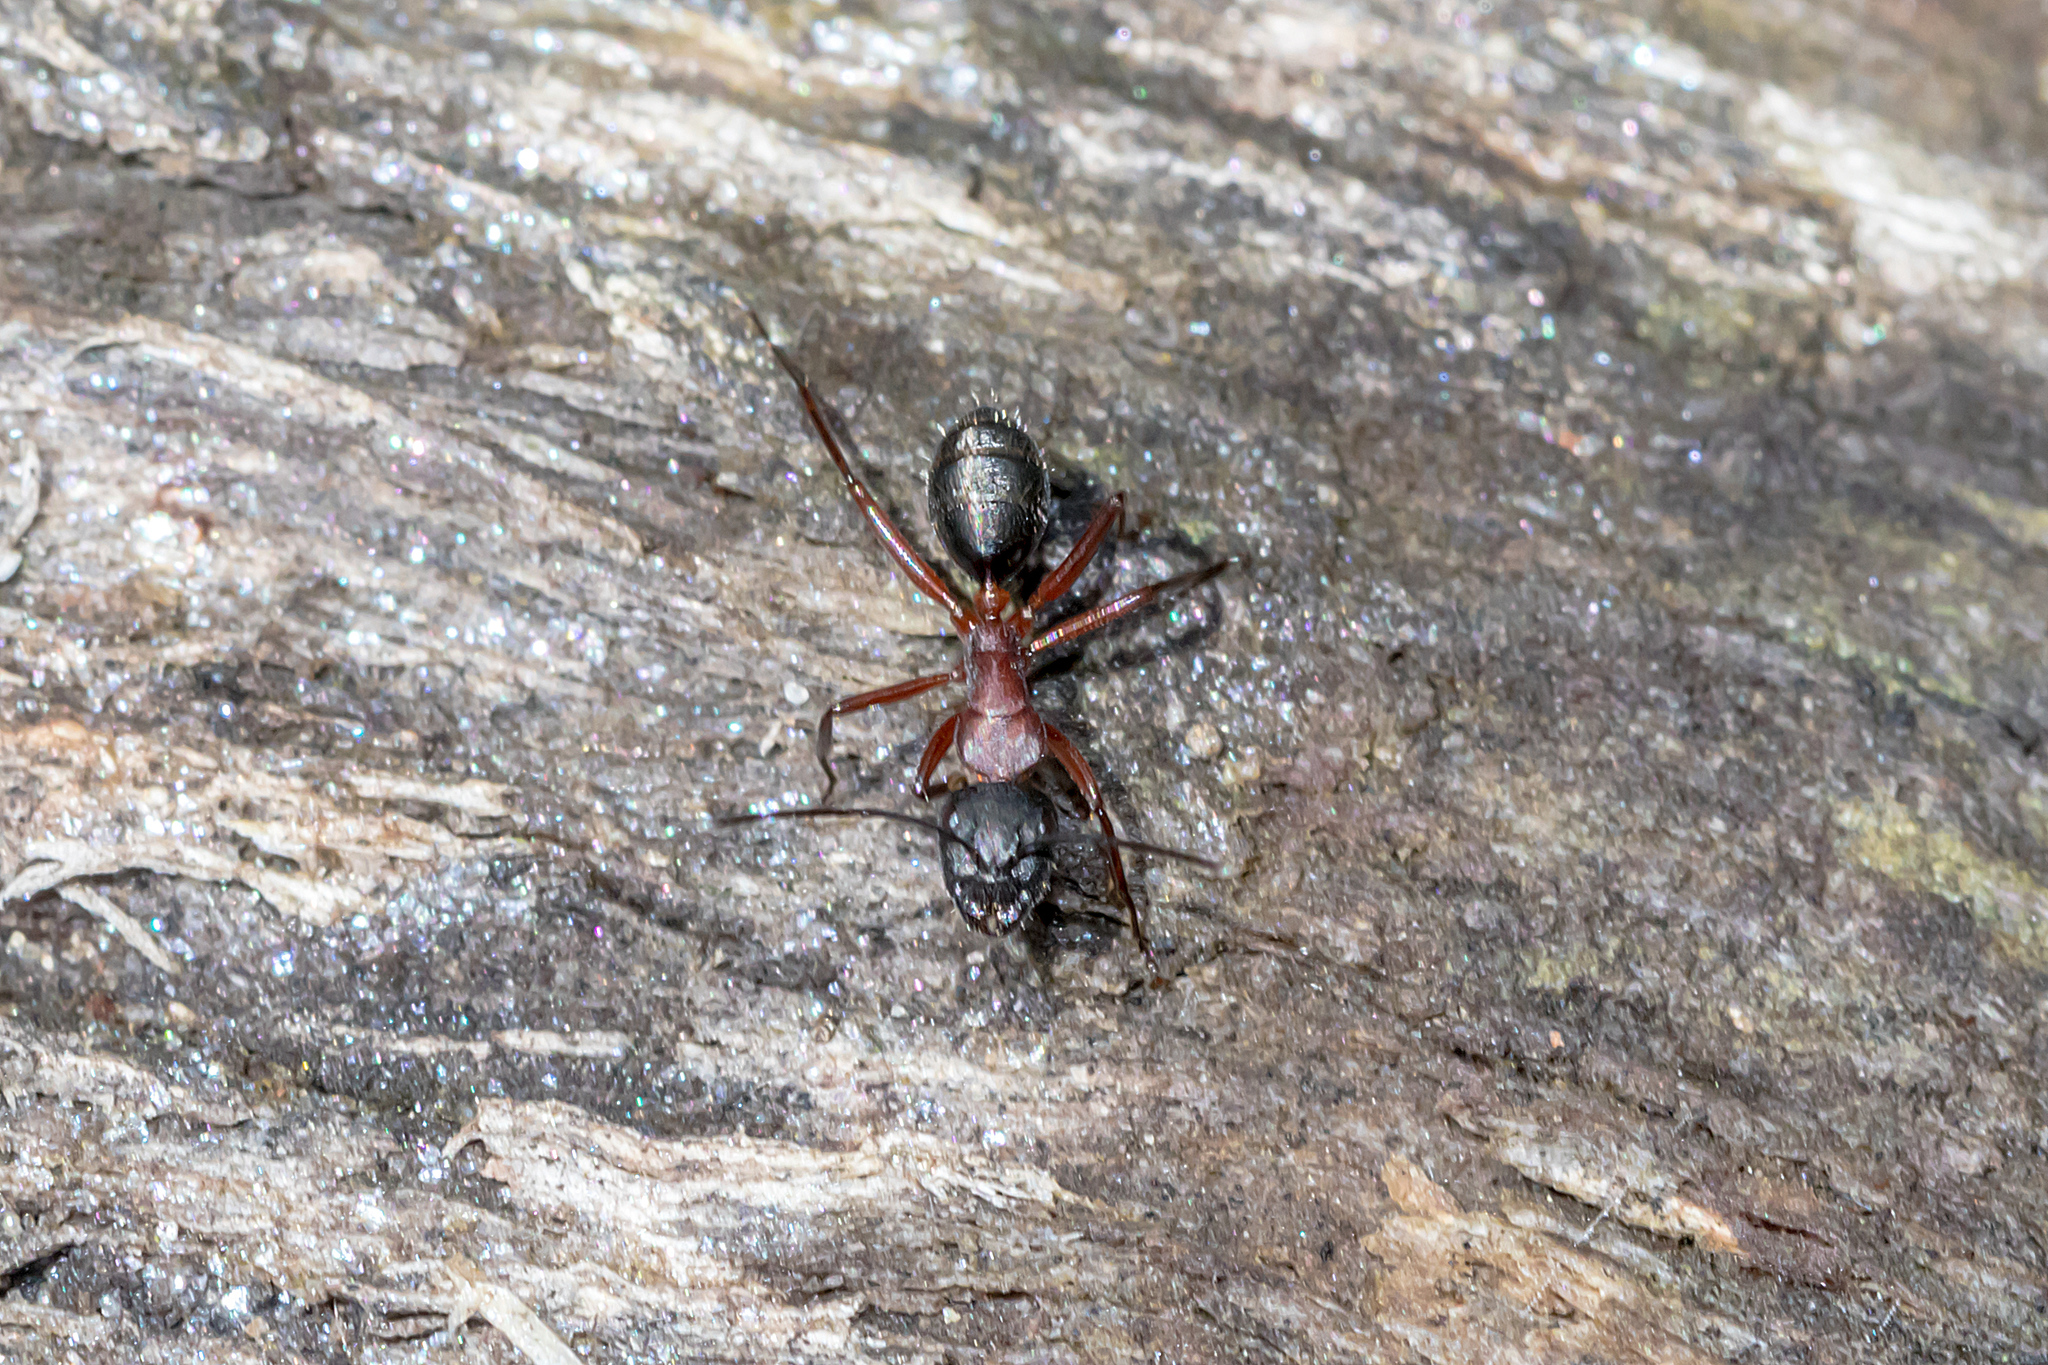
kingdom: Animalia
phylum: Arthropoda
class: Insecta
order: Hymenoptera
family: Formicidae
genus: Camponotus
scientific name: Camponotus innexus
